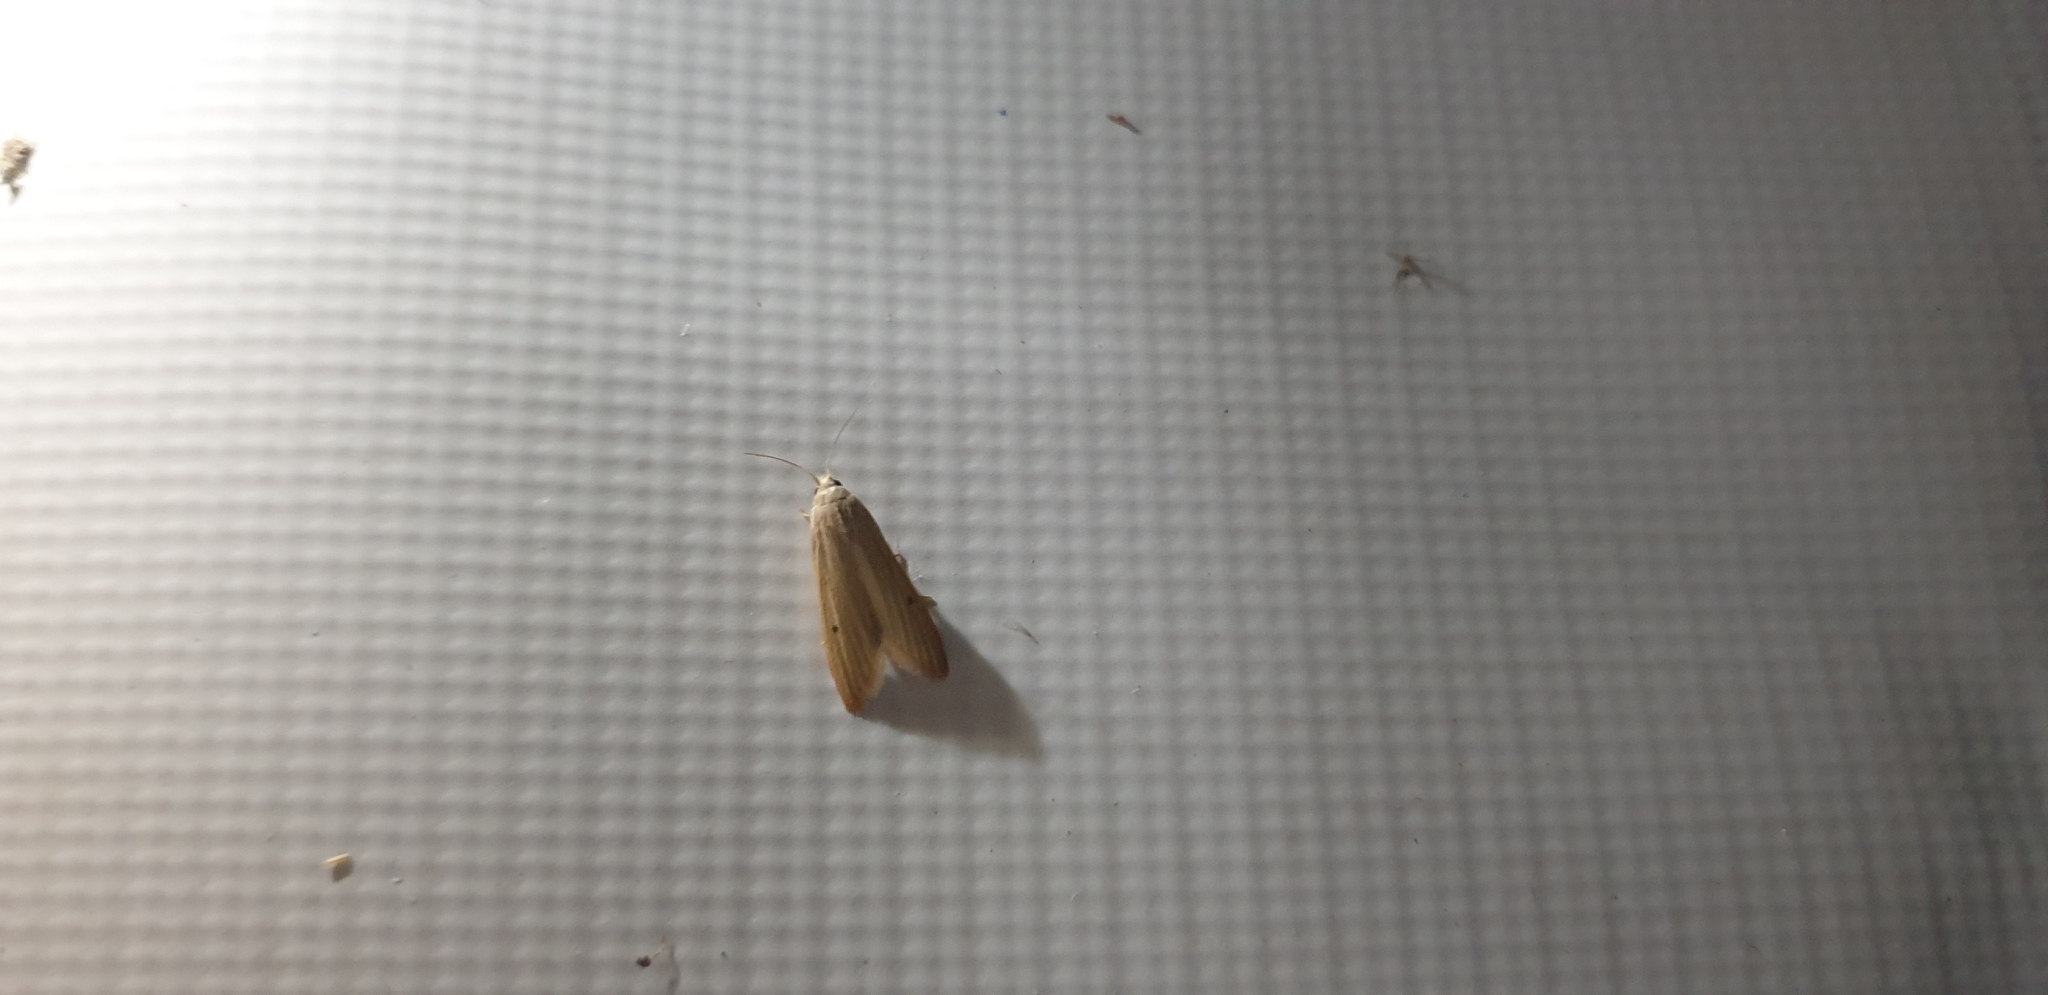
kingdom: Animalia
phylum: Arthropoda
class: Insecta
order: Lepidoptera
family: Pyralidae
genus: Mampava
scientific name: Mampava rhodoneura
